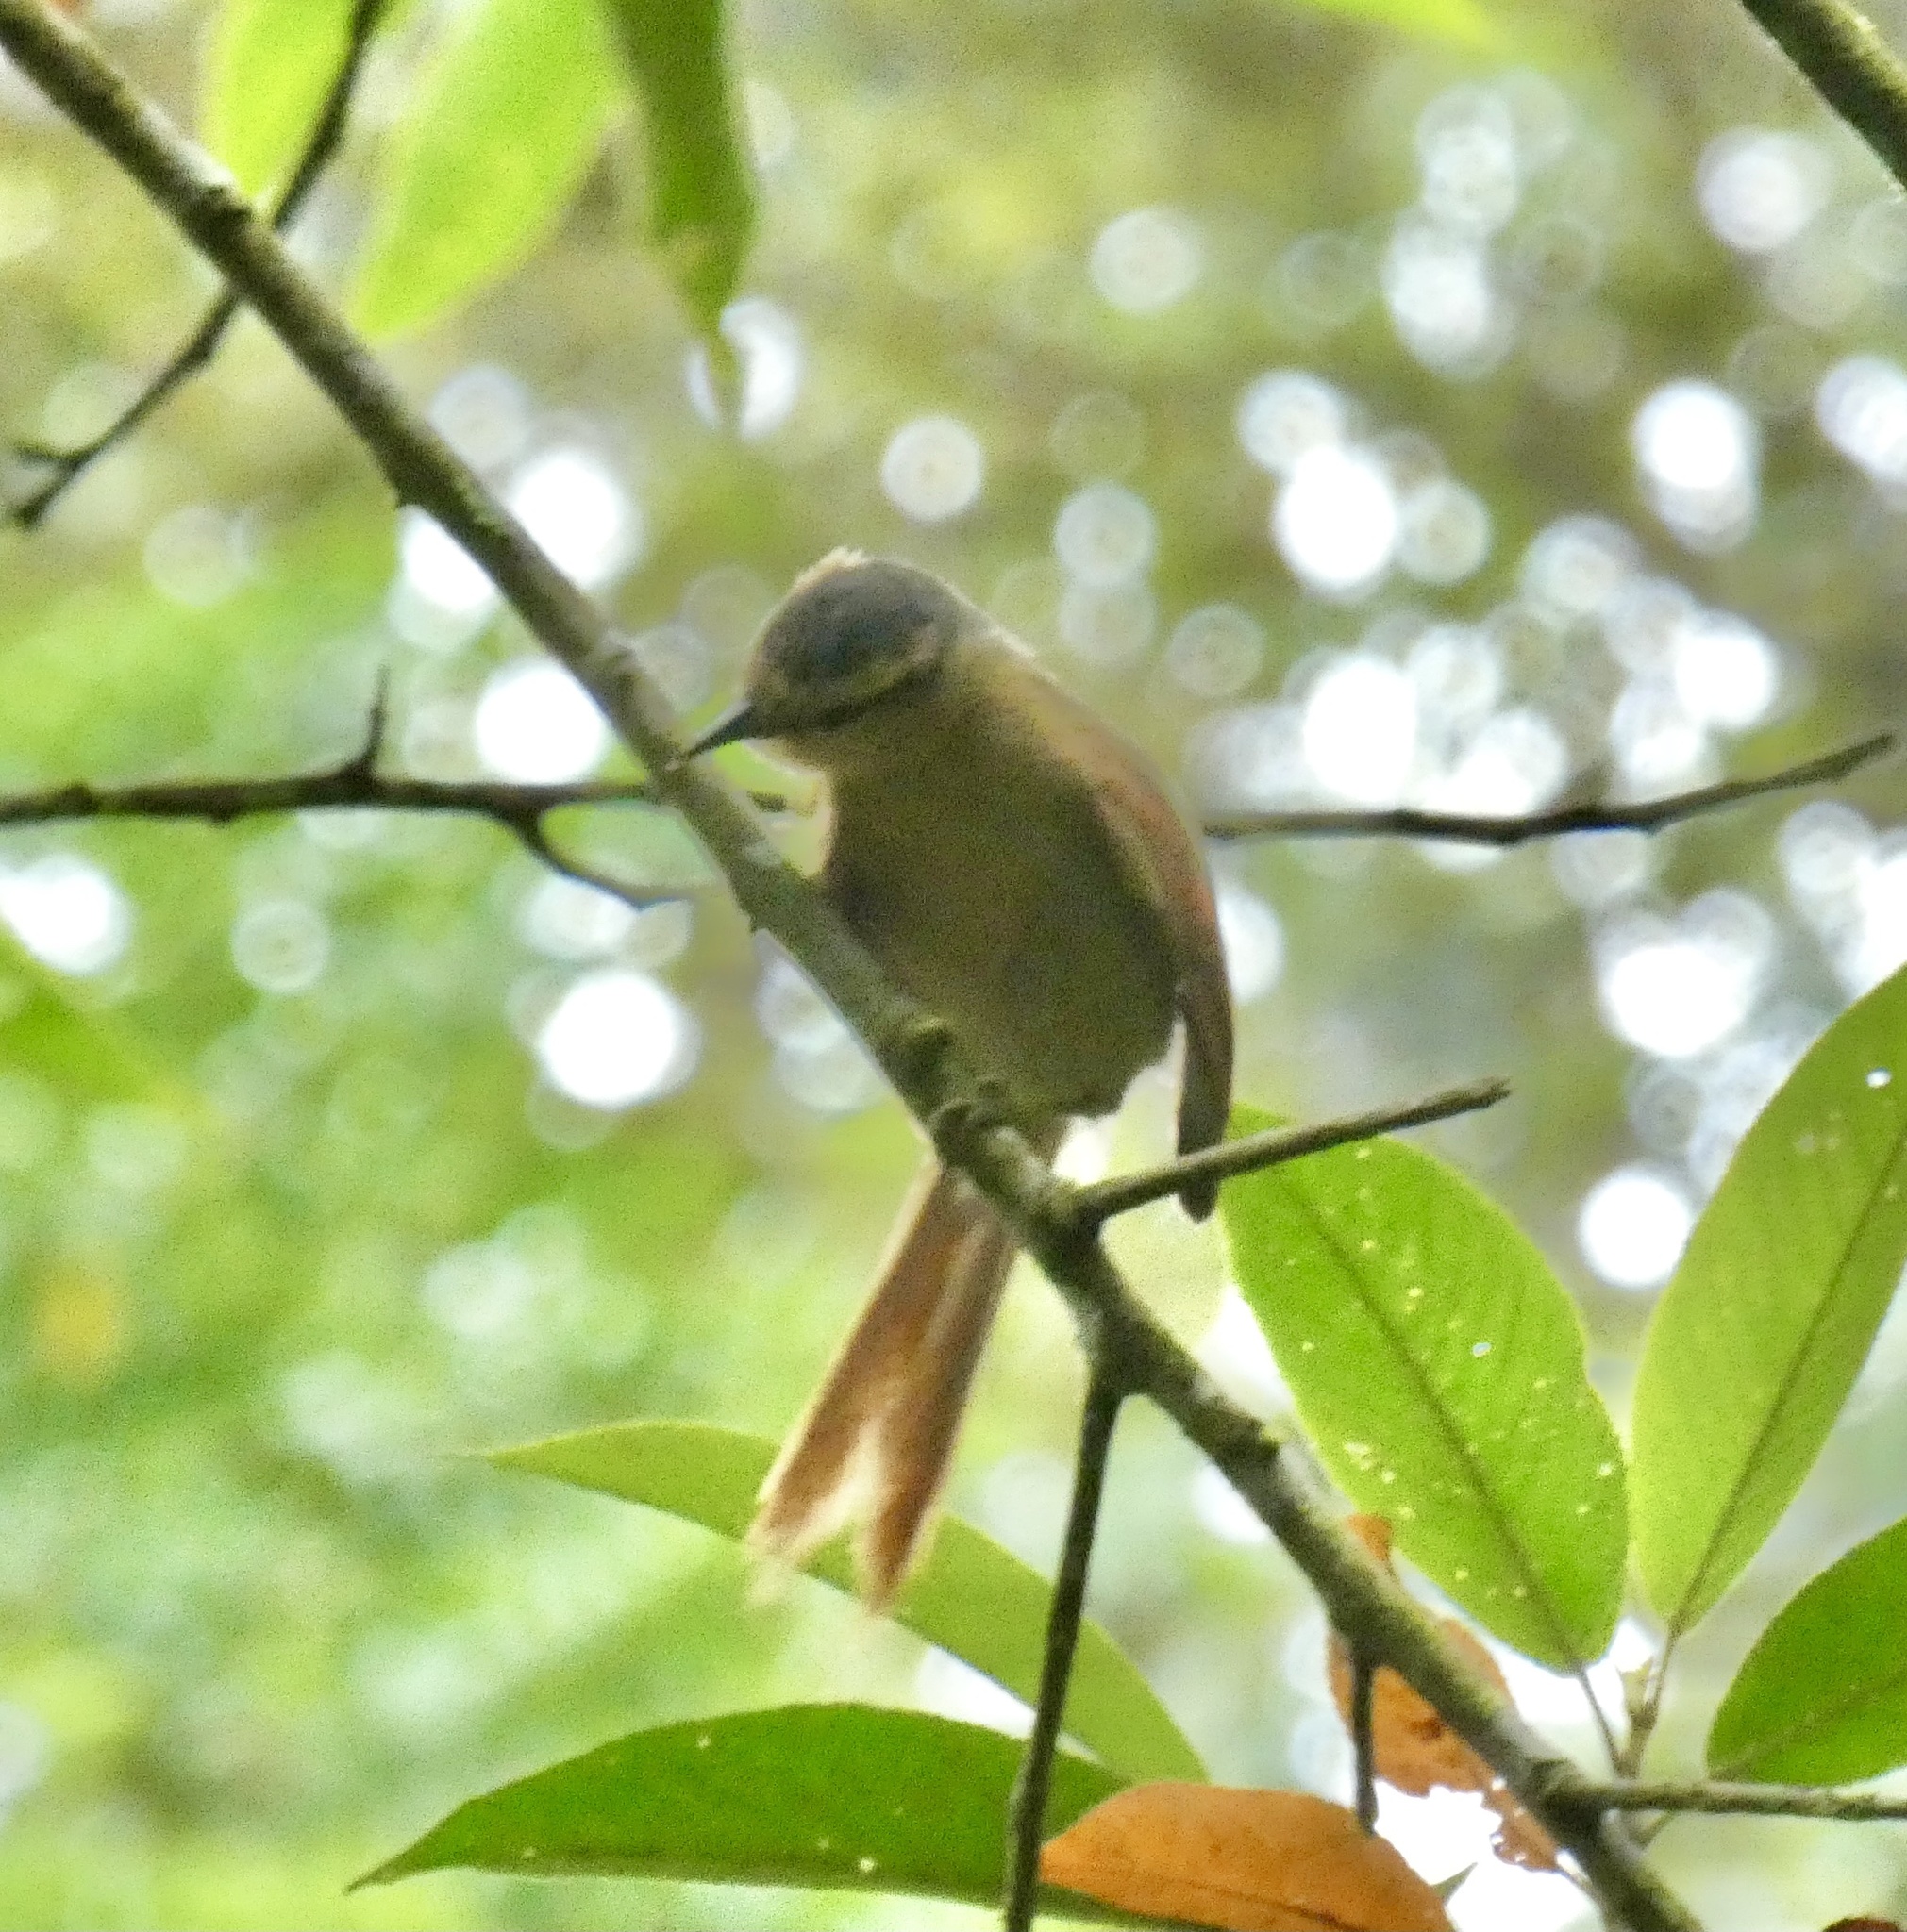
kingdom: Animalia
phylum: Chordata
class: Aves
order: Passeriformes
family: Furnariidae
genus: Philydor
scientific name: Philydor rufum
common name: Buff-fronted foliage-gleaner
